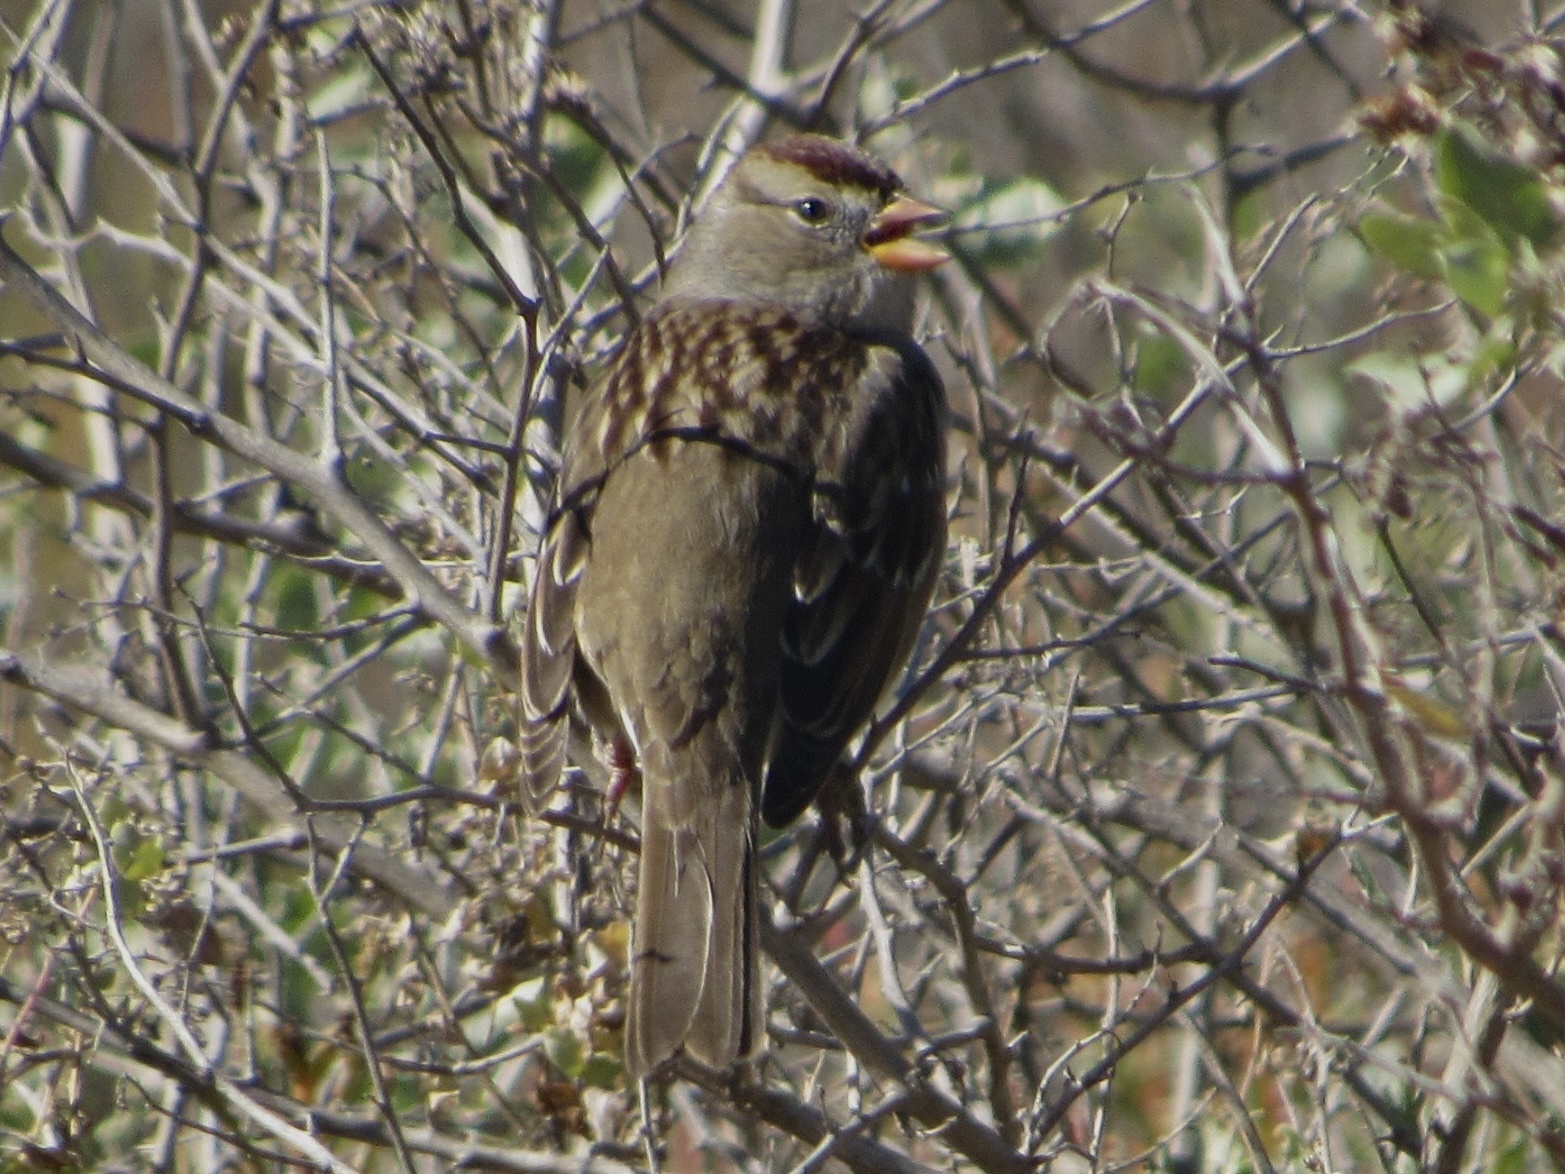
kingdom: Animalia
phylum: Chordata
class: Aves
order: Passeriformes
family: Passerellidae
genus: Zonotrichia
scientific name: Zonotrichia leucophrys
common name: White-crowned sparrow
